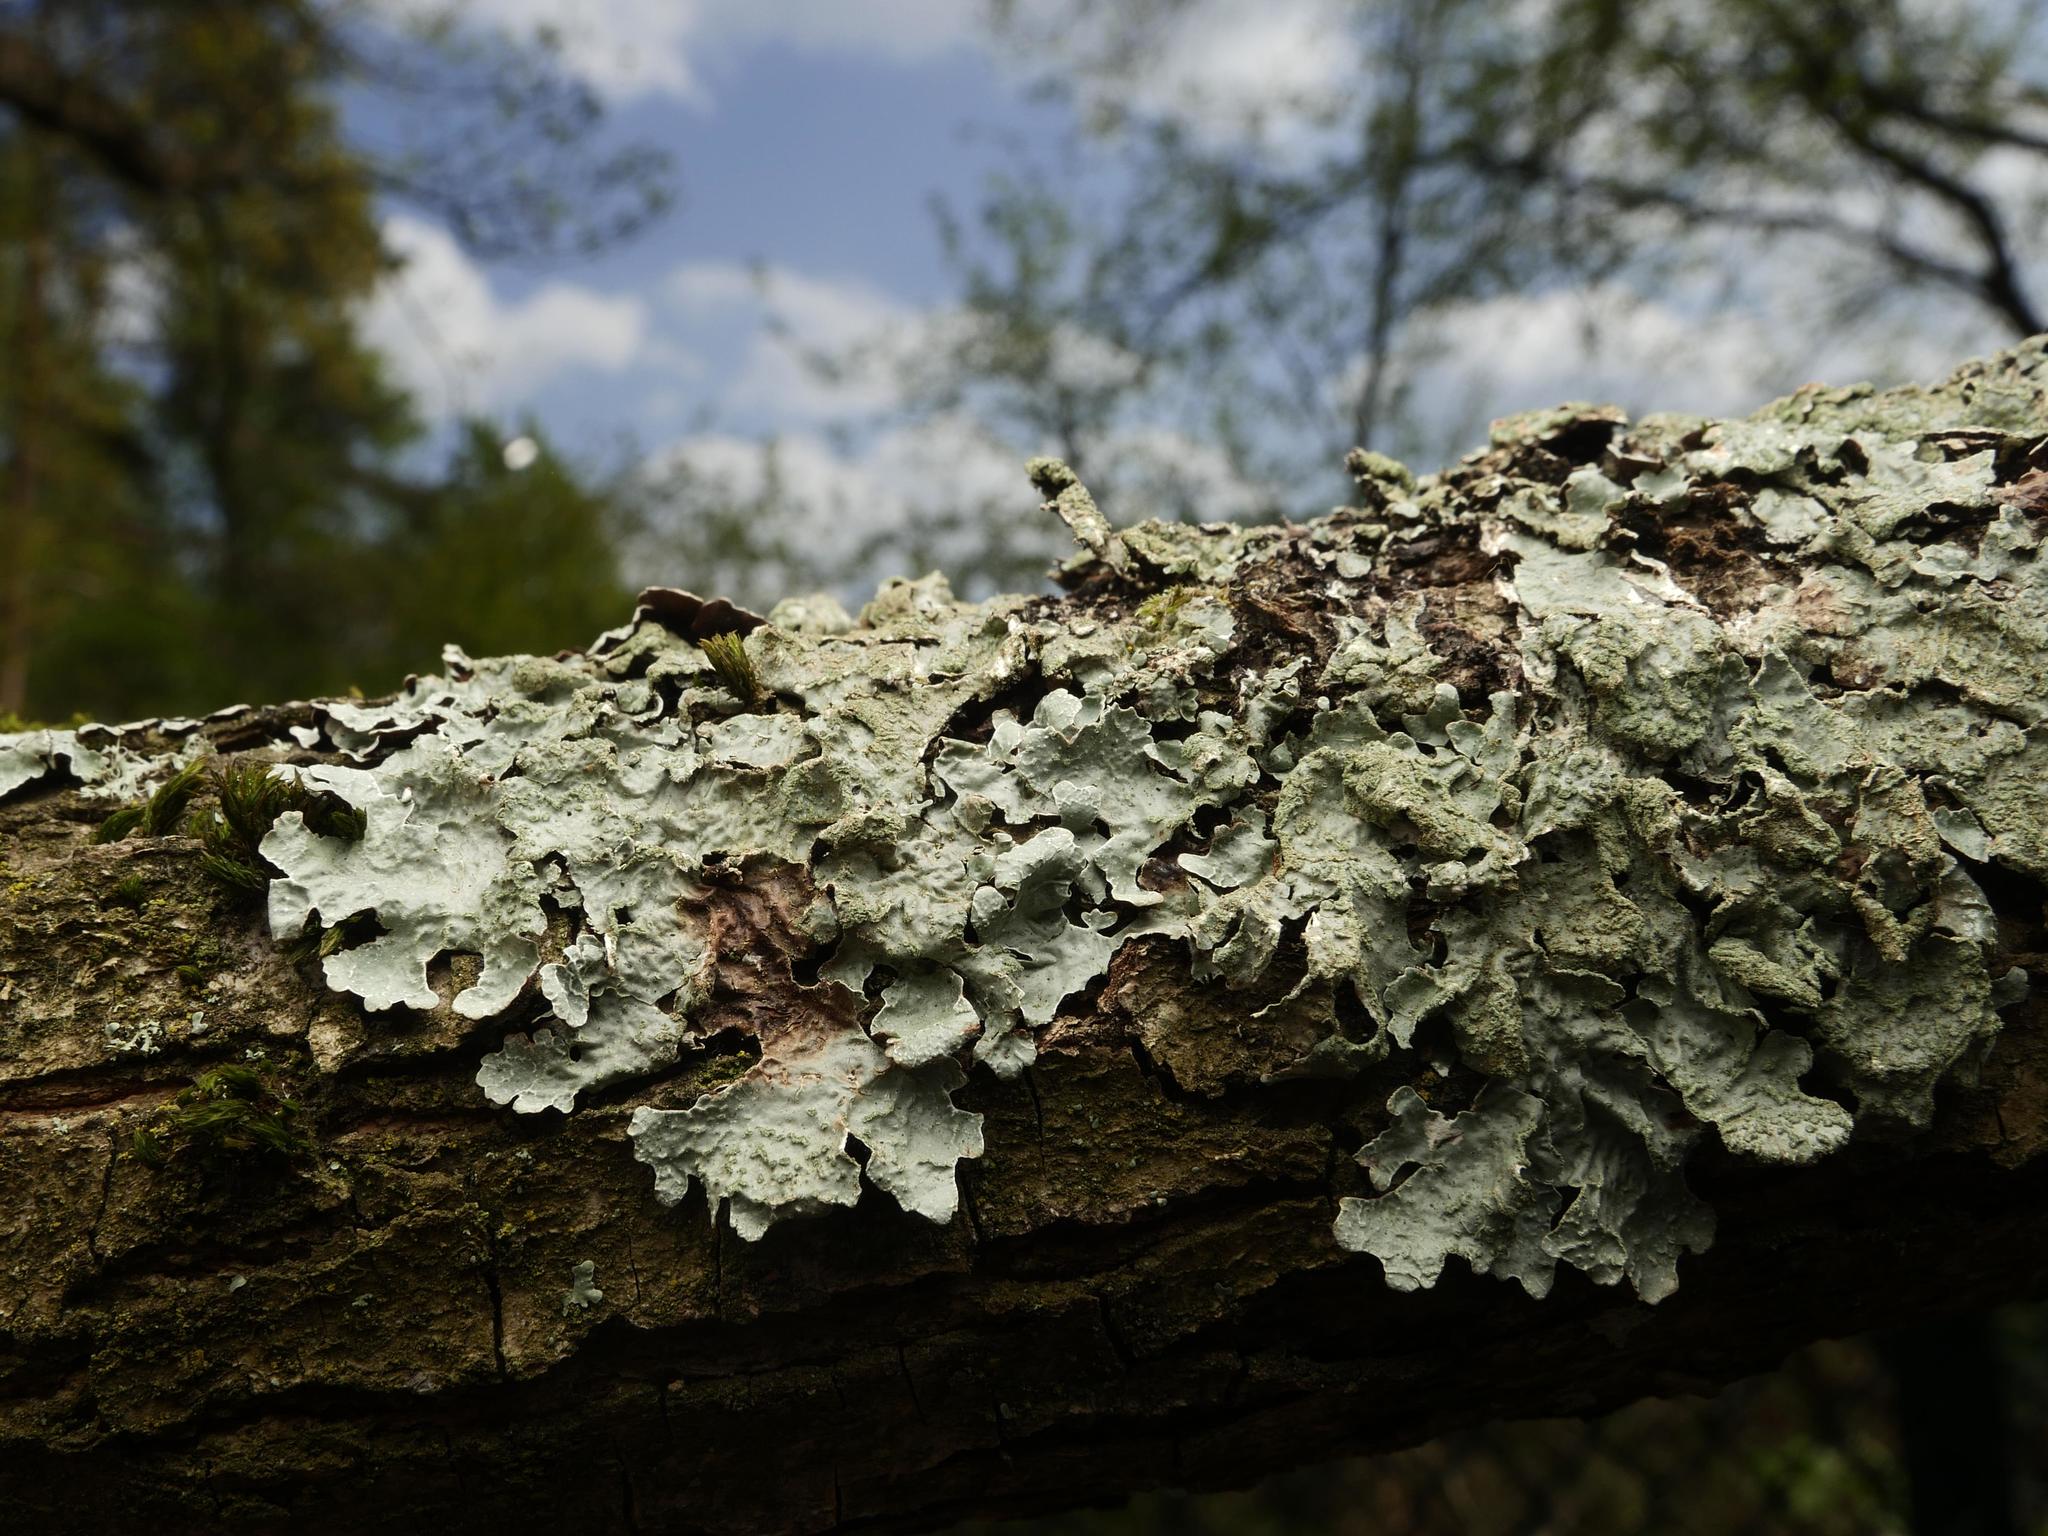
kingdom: Fungi
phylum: Ascomycota
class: Lecanoromycetes
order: Lecanorales
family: Parmeliaceae
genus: Parmelia
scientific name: Parmelia sulcata
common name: Netted shield lichen
